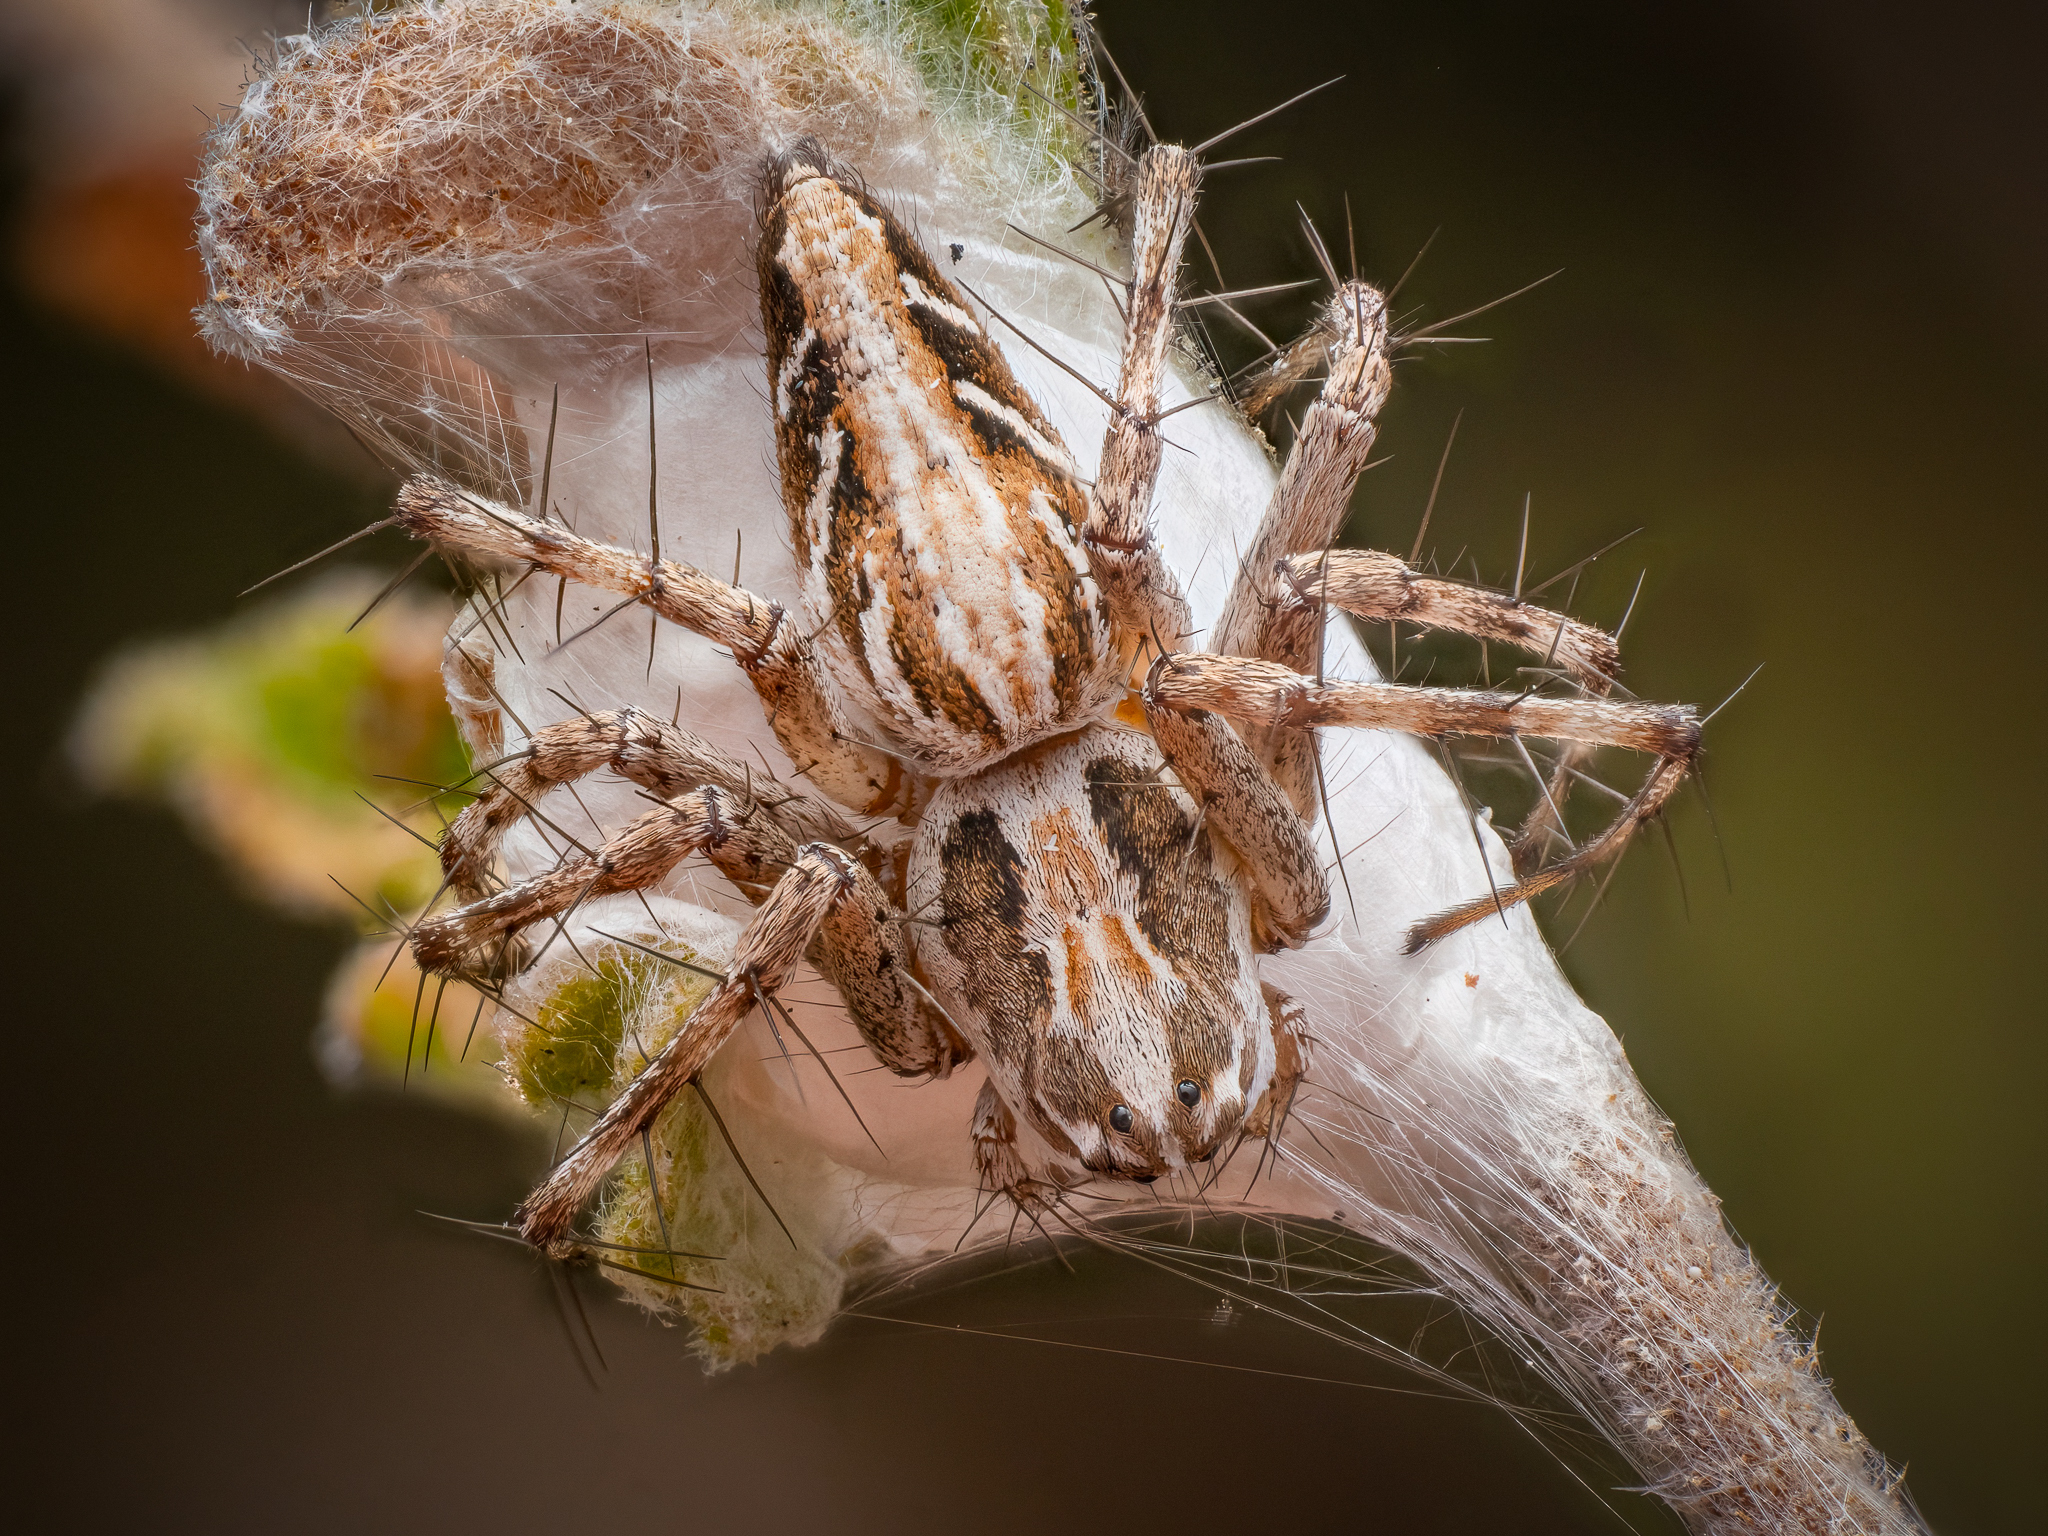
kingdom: Animalia
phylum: Arthropoda
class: Arachnida
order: Araneae
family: Oxyopidae
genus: Oxyopes
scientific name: Oxyopes heterophthalmus
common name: Lynx spider
